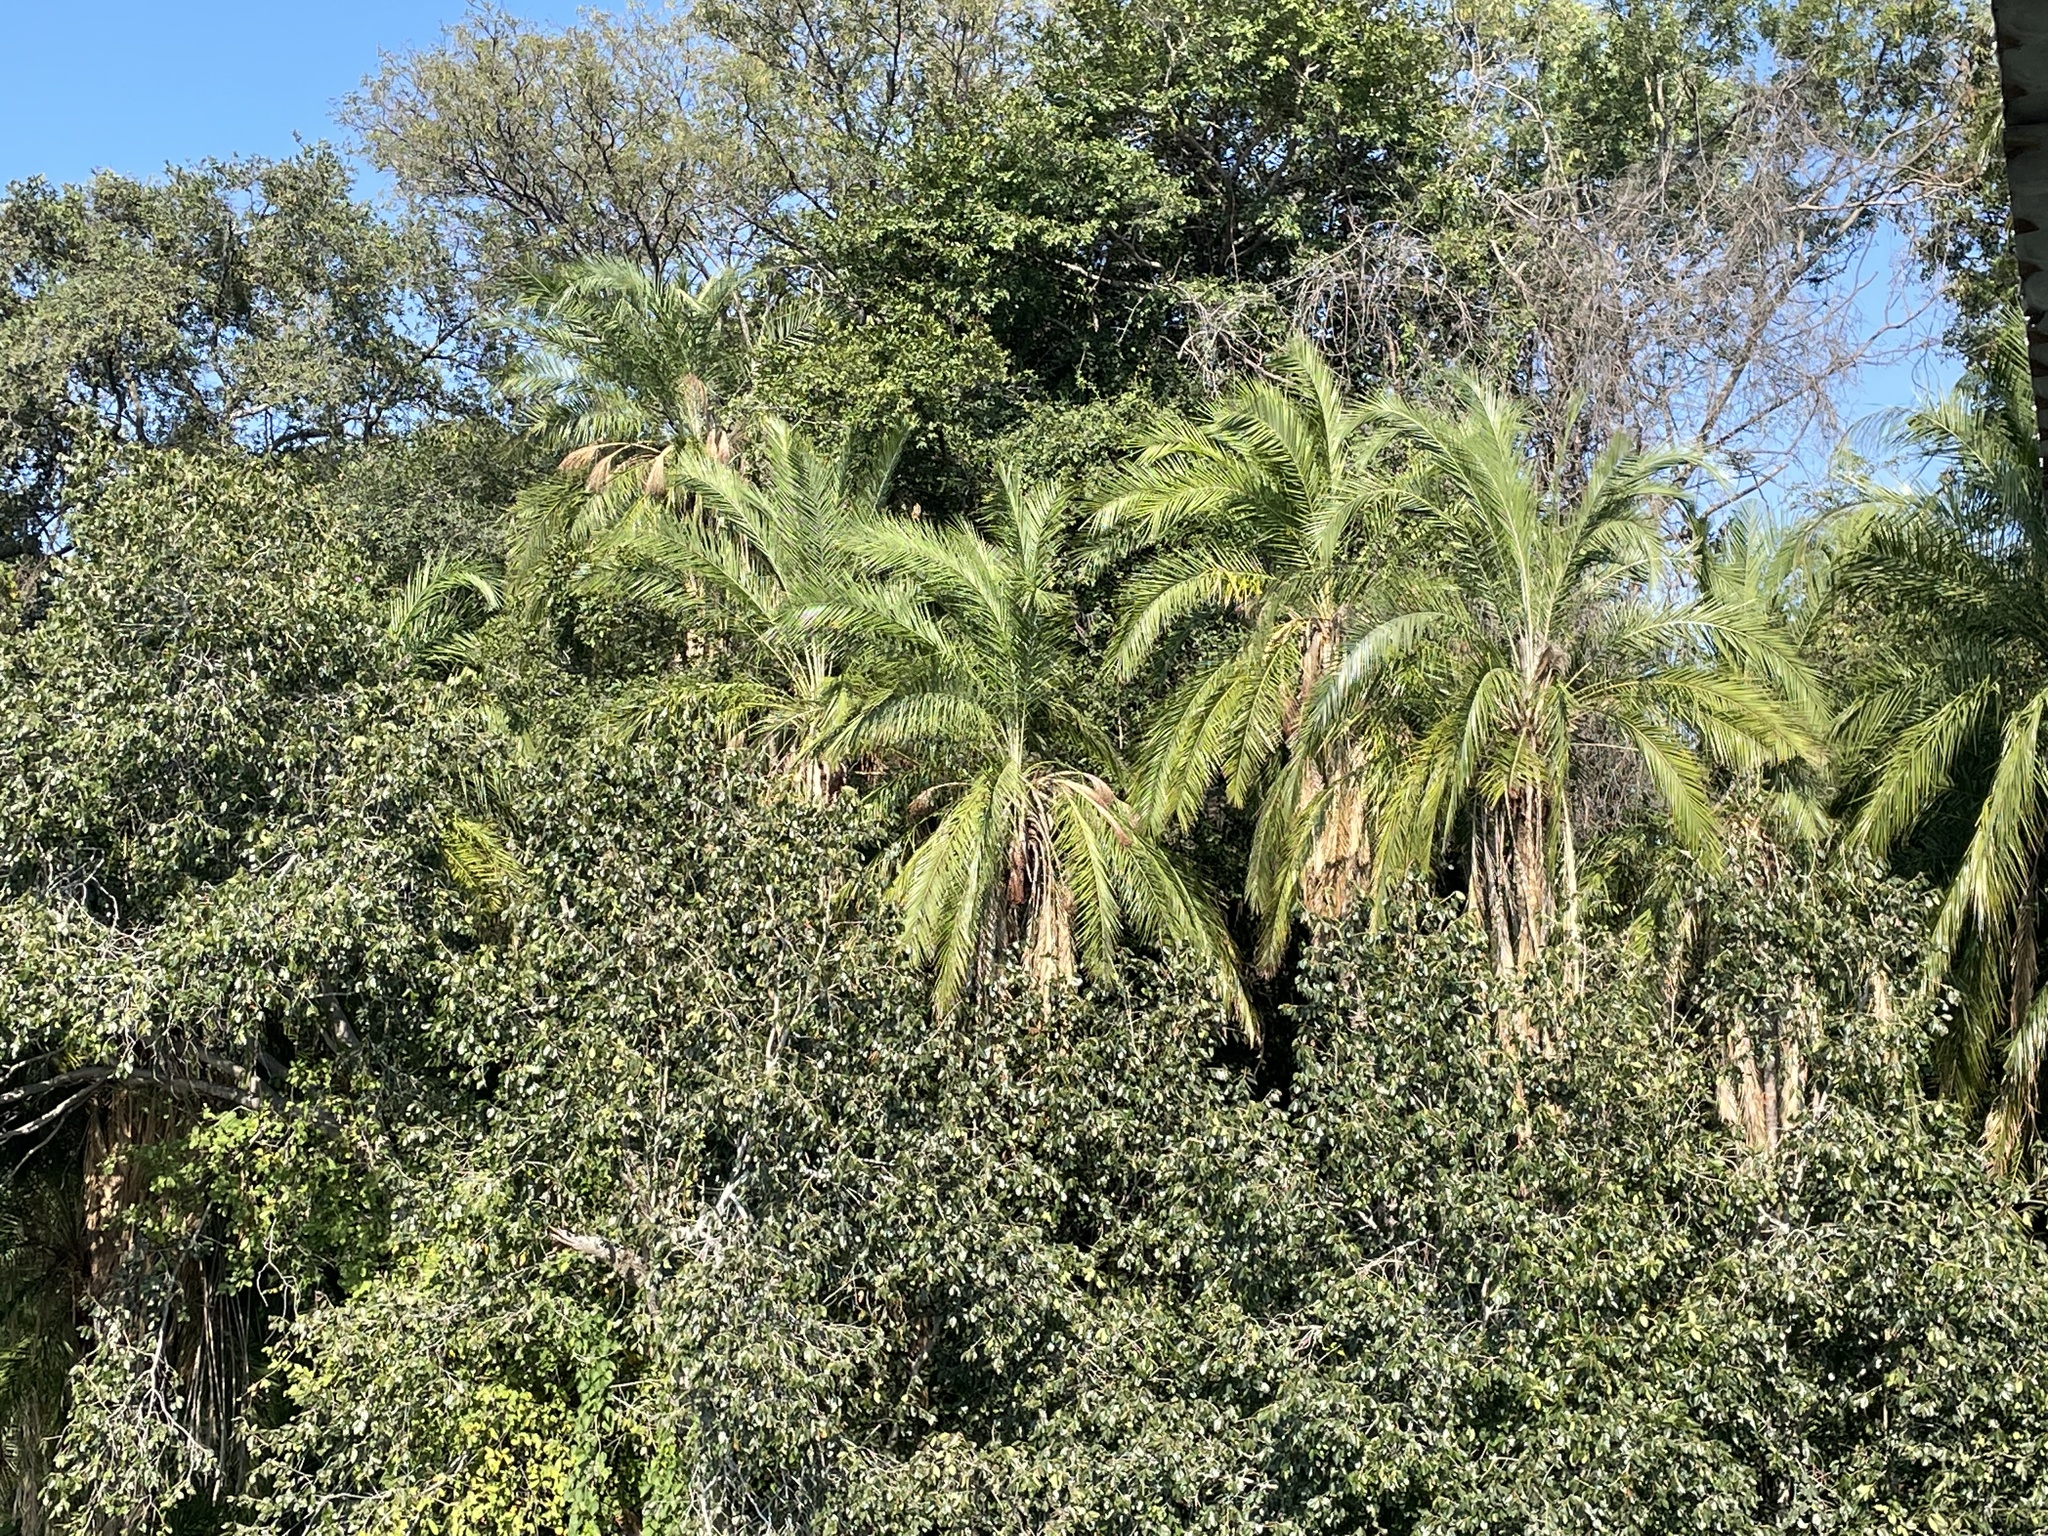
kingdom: Plantae
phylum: Tracheophyta
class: Liliopsida
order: Arecales
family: Arecaceae
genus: Phoenix
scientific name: Phoenix reclinata
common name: Senegal date palm
